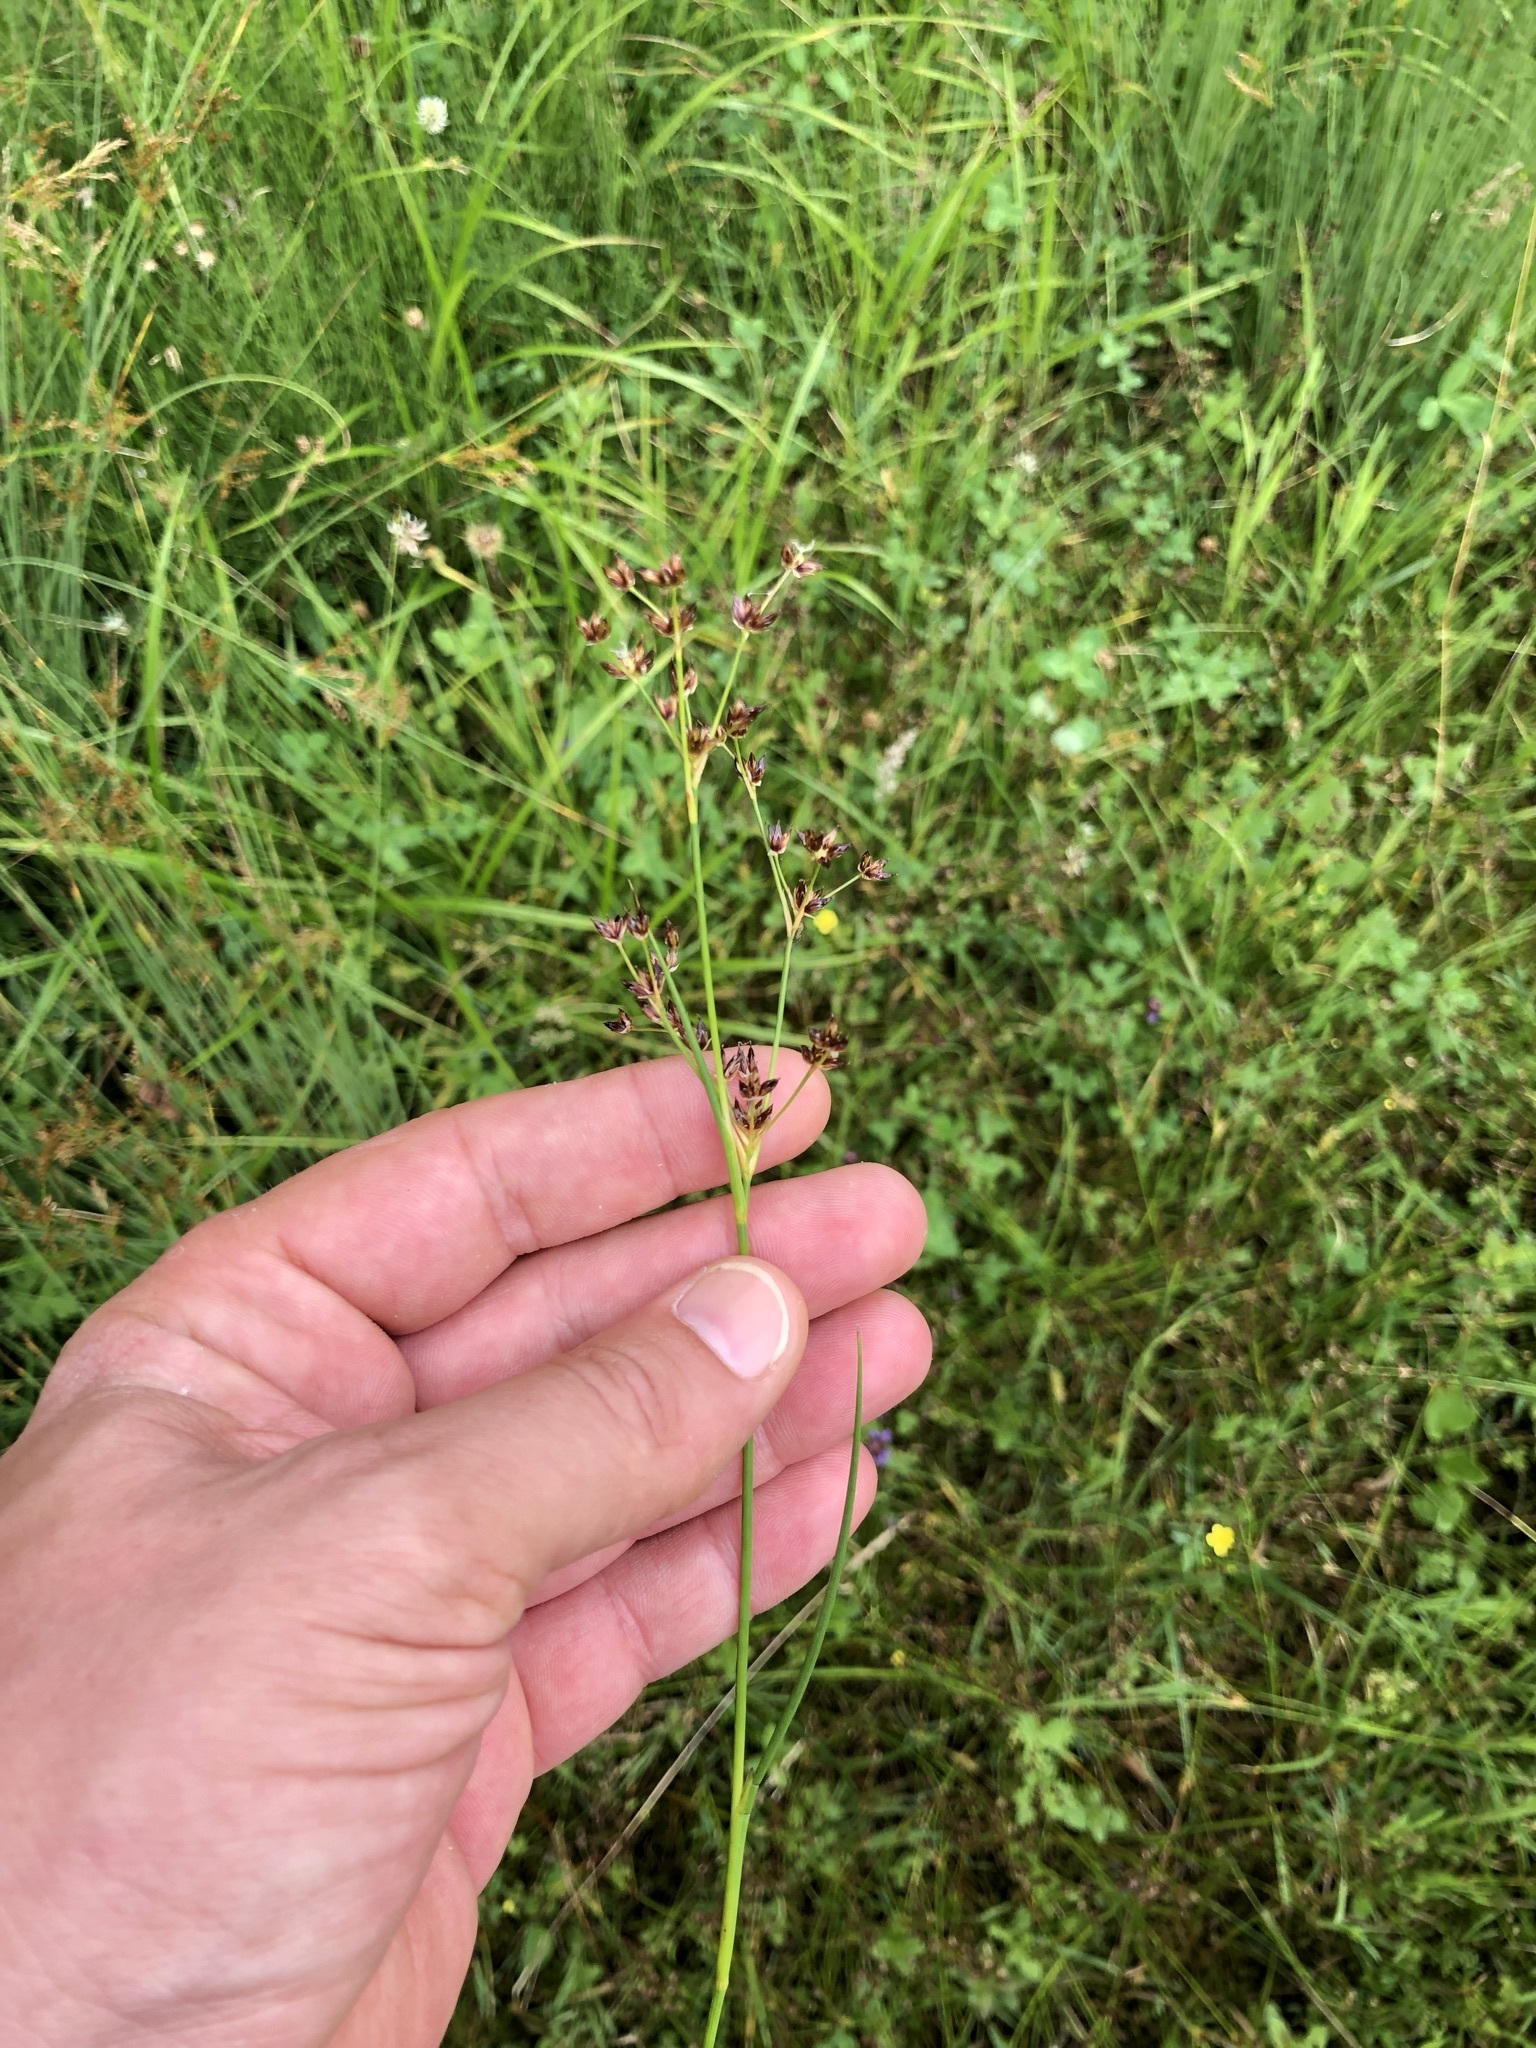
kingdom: Plantae
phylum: Tracheophyta
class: Liliopsida
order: Poales
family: Juncaceae
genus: Juncus
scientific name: Juncus articulatus
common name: Jointed rush
